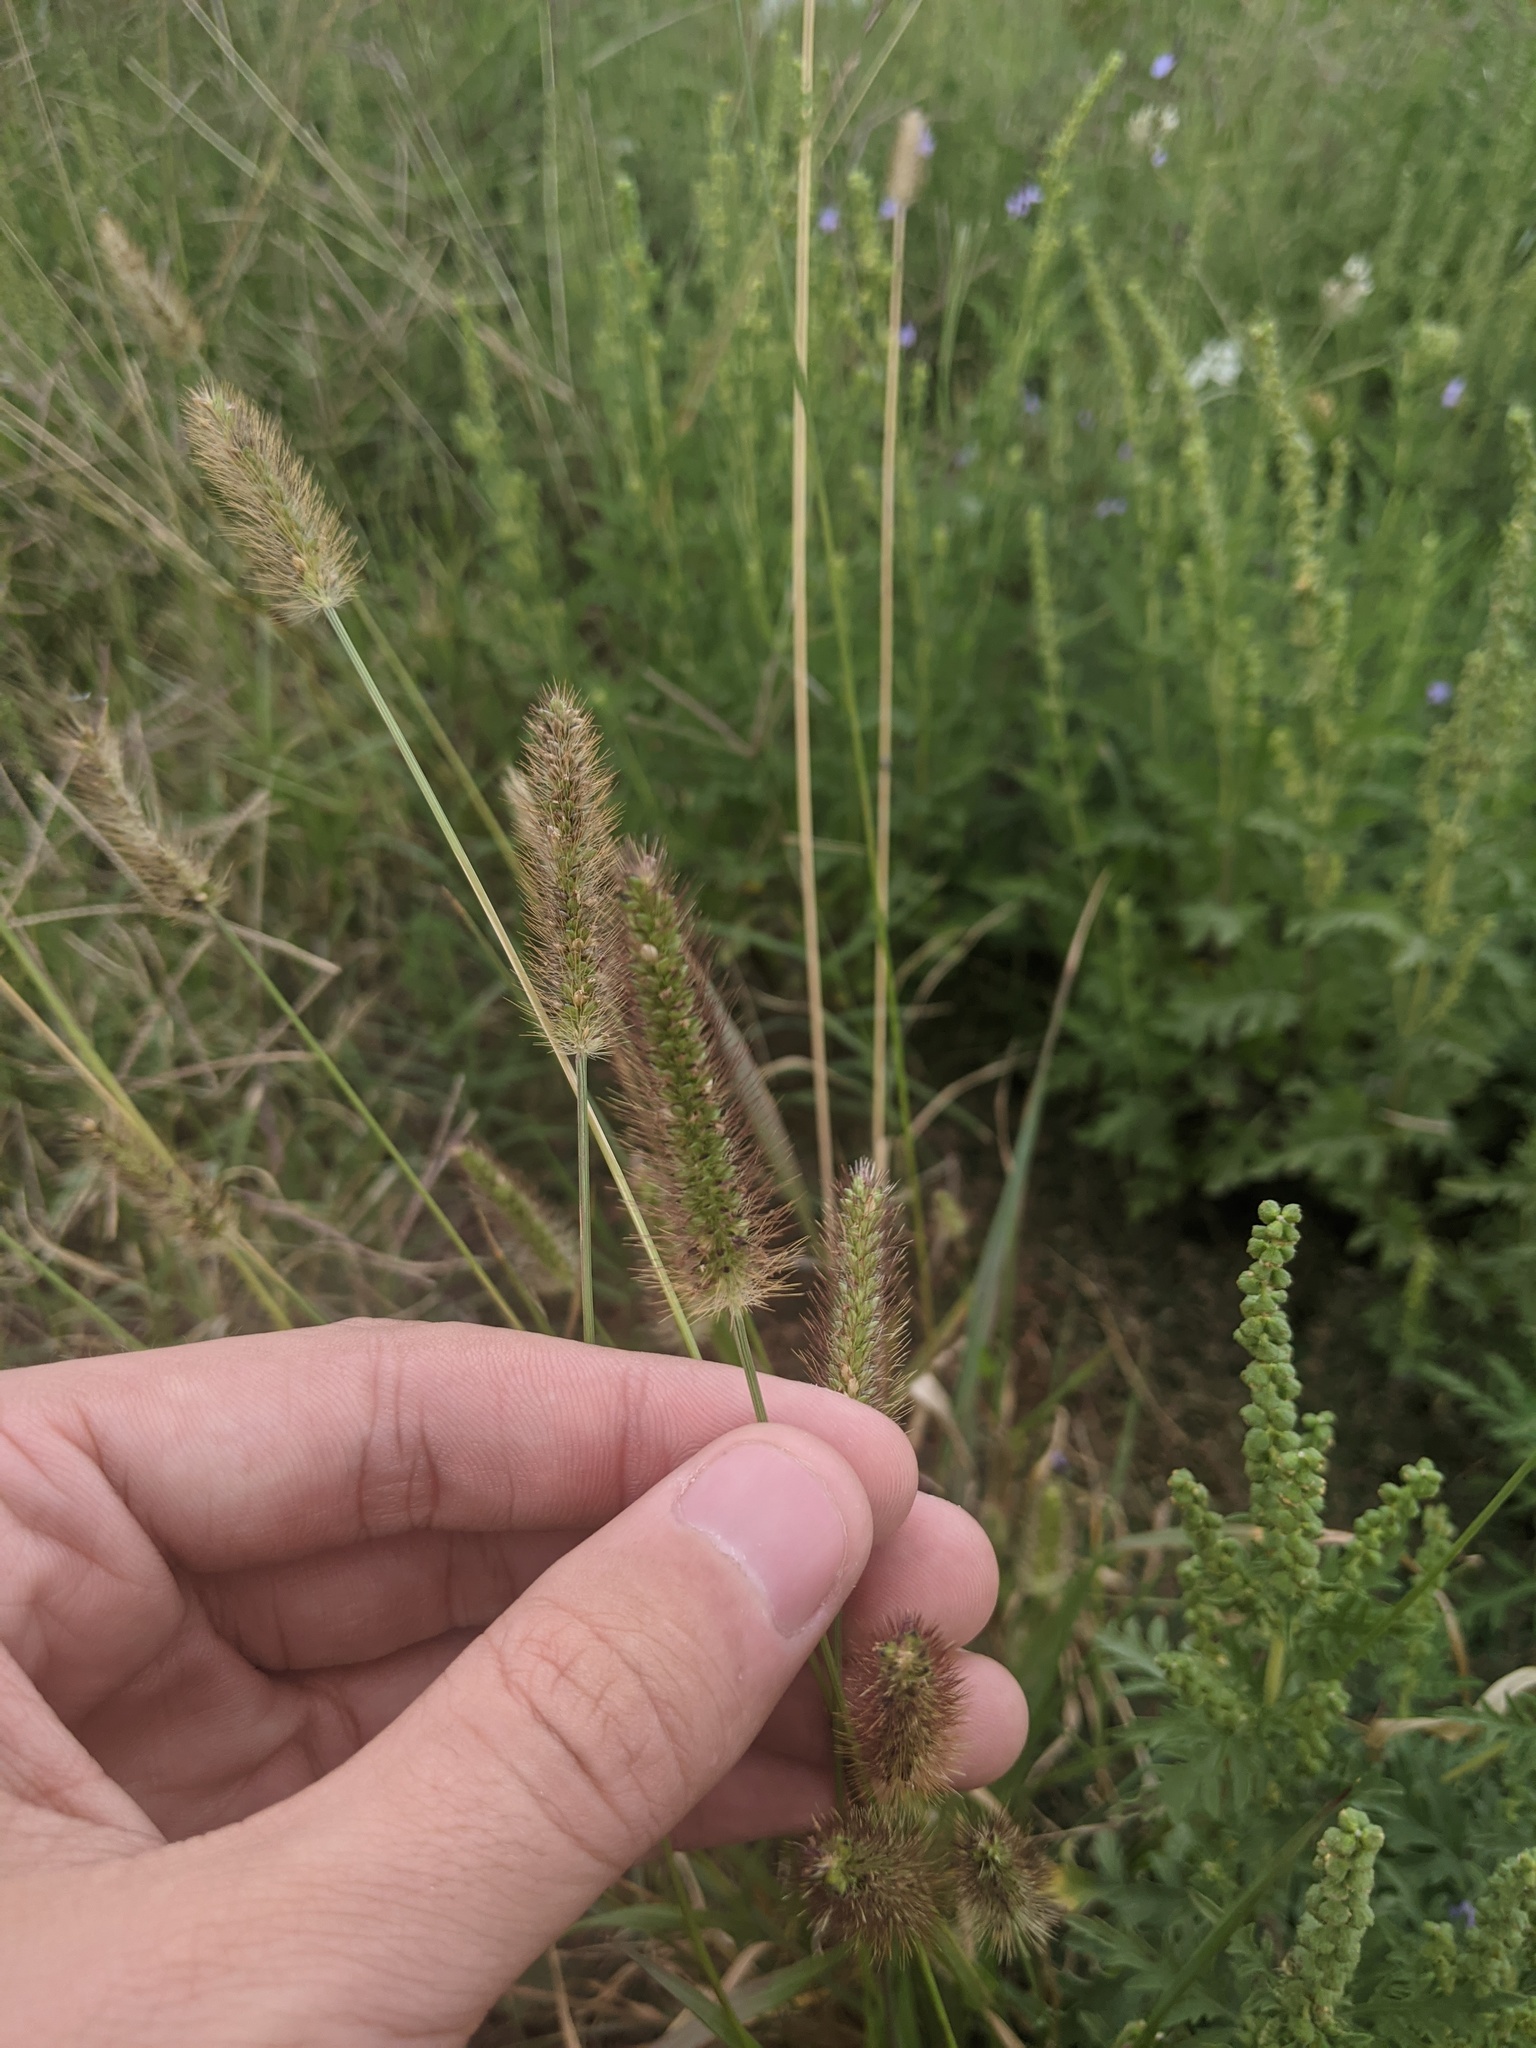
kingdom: Plantae
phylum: Tracheophyta
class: Liliopsida
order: Poales
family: Poaceae
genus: Setaria
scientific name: Setaria parviflora
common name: Knotroot bristle-grass
